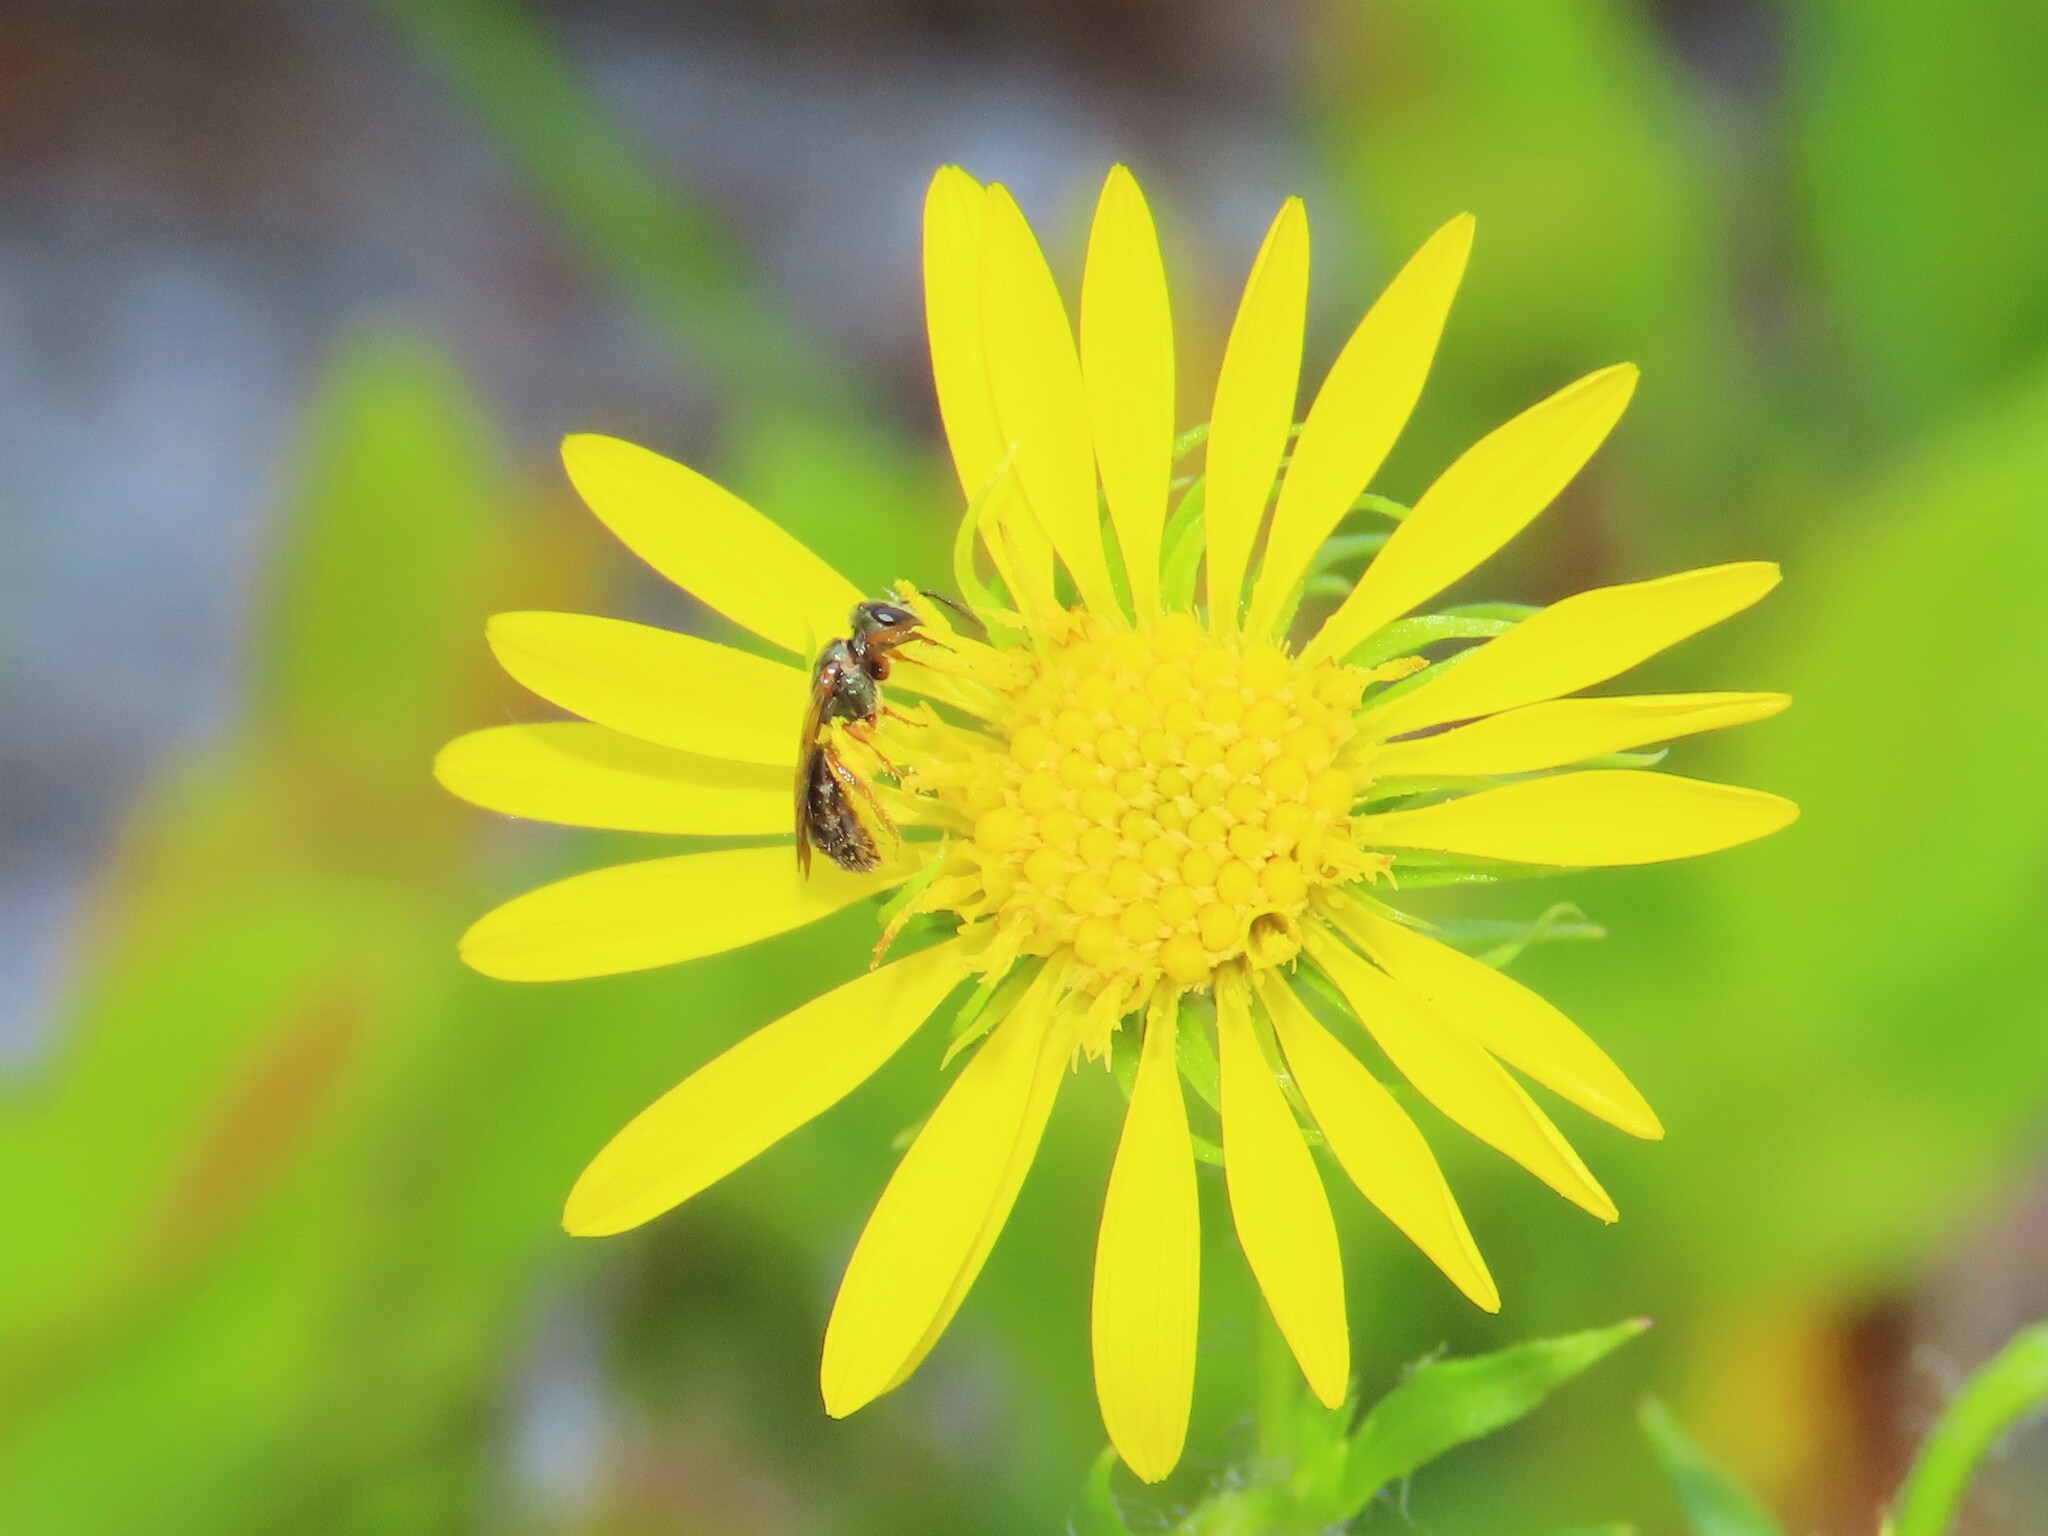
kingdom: Plantae
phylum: Tracheophyta
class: Magnoliopsida
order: Asterales
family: Asteraceae
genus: Chrysopsis
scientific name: Chrysopsis subulata
